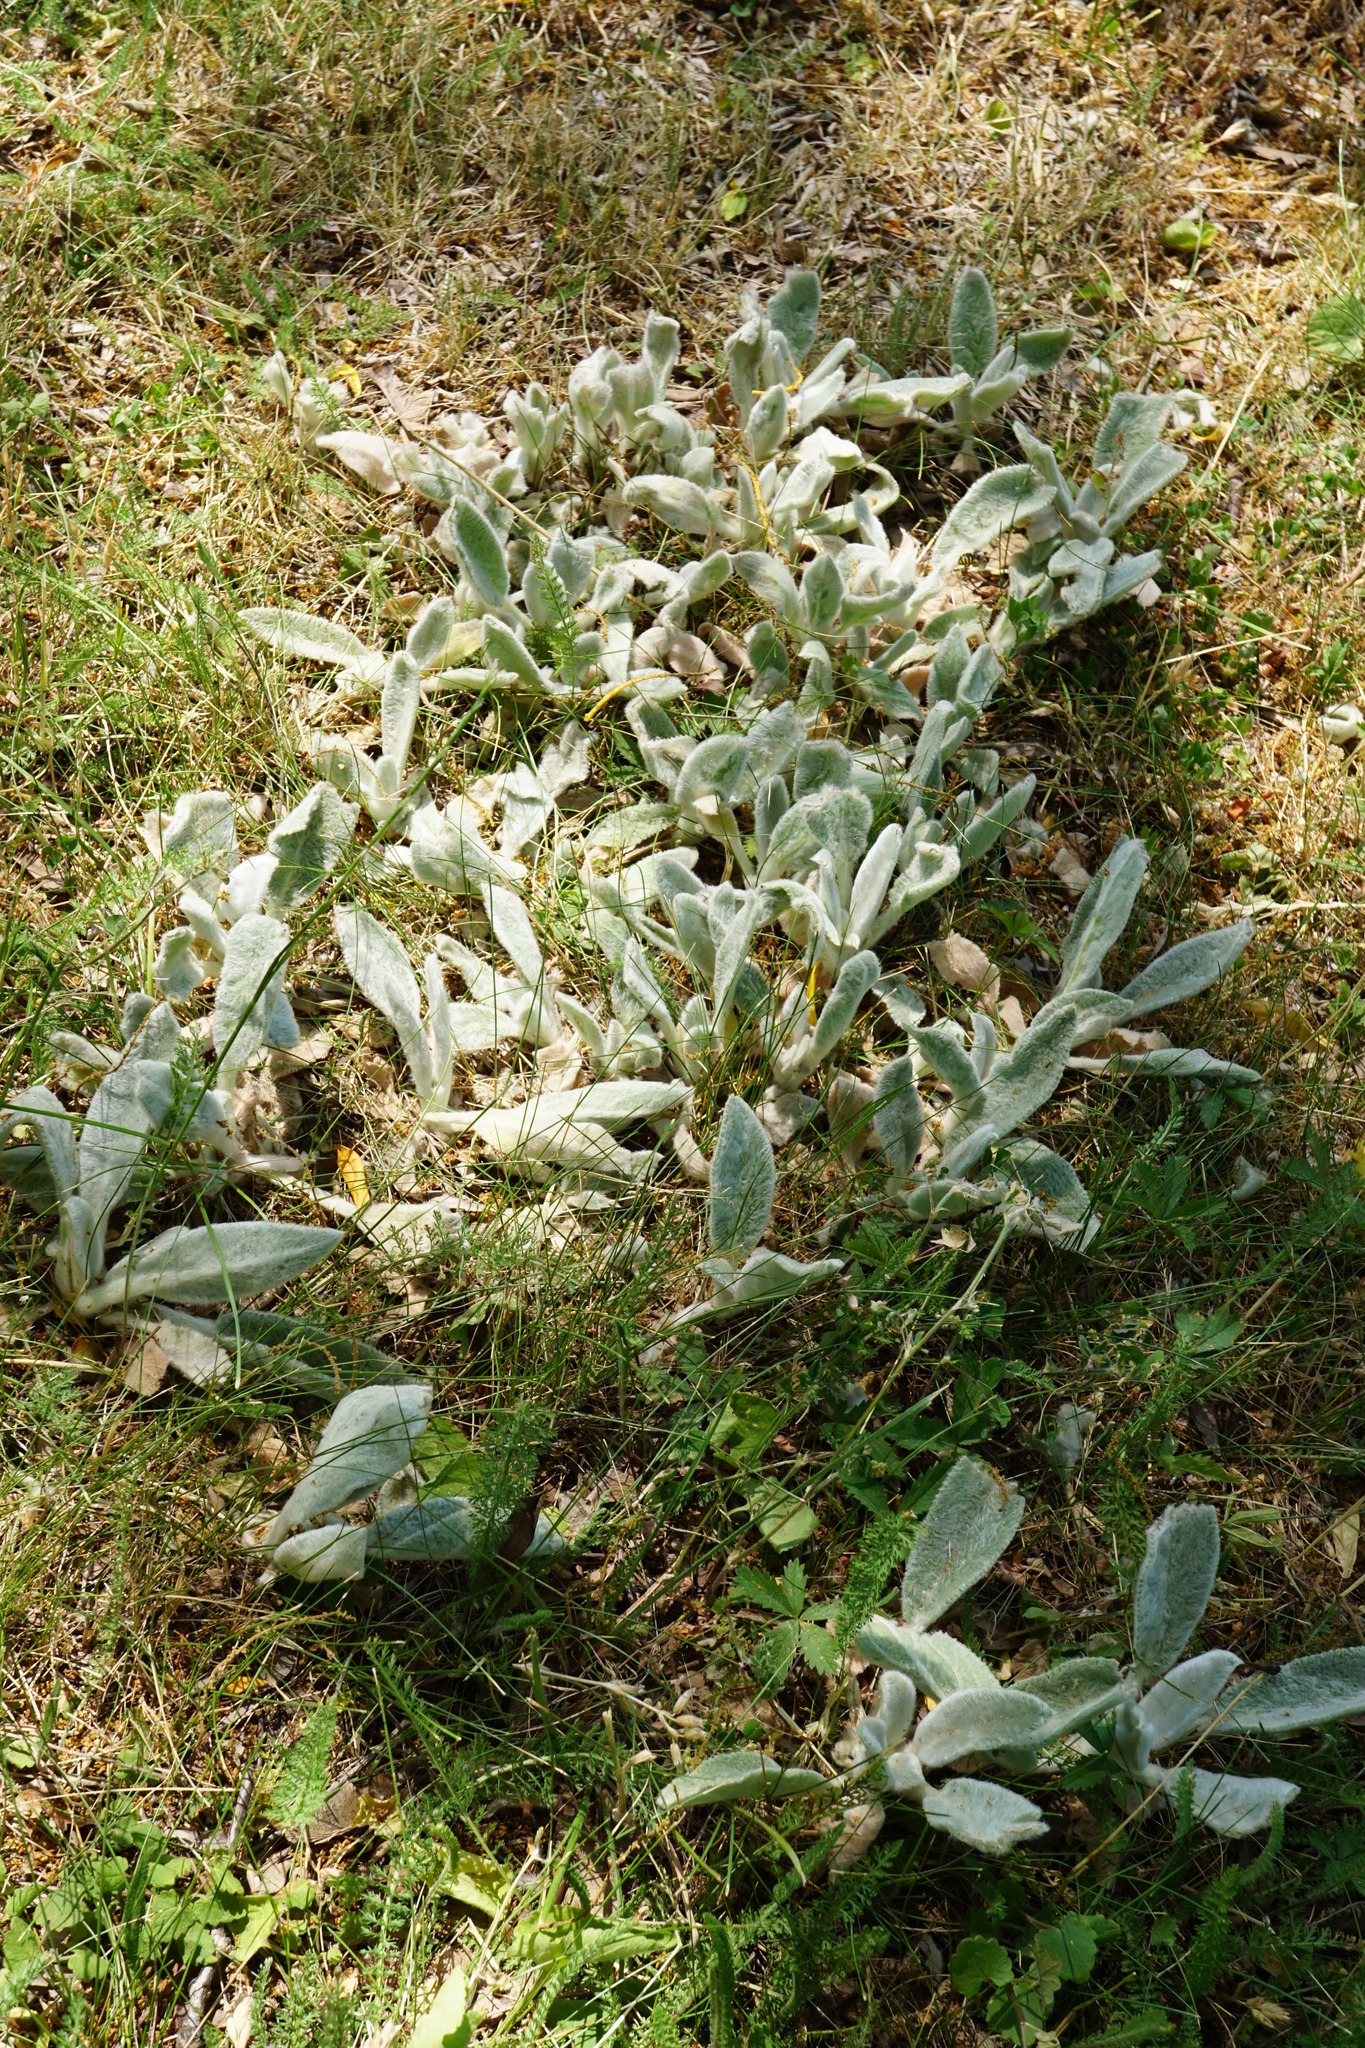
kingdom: Plantae
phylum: Tracheophyta
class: Magnoliopsida
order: Lamiales
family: Lamiaceae
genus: Stachys
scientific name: Stachys byzantina
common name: Lamb's-ear
